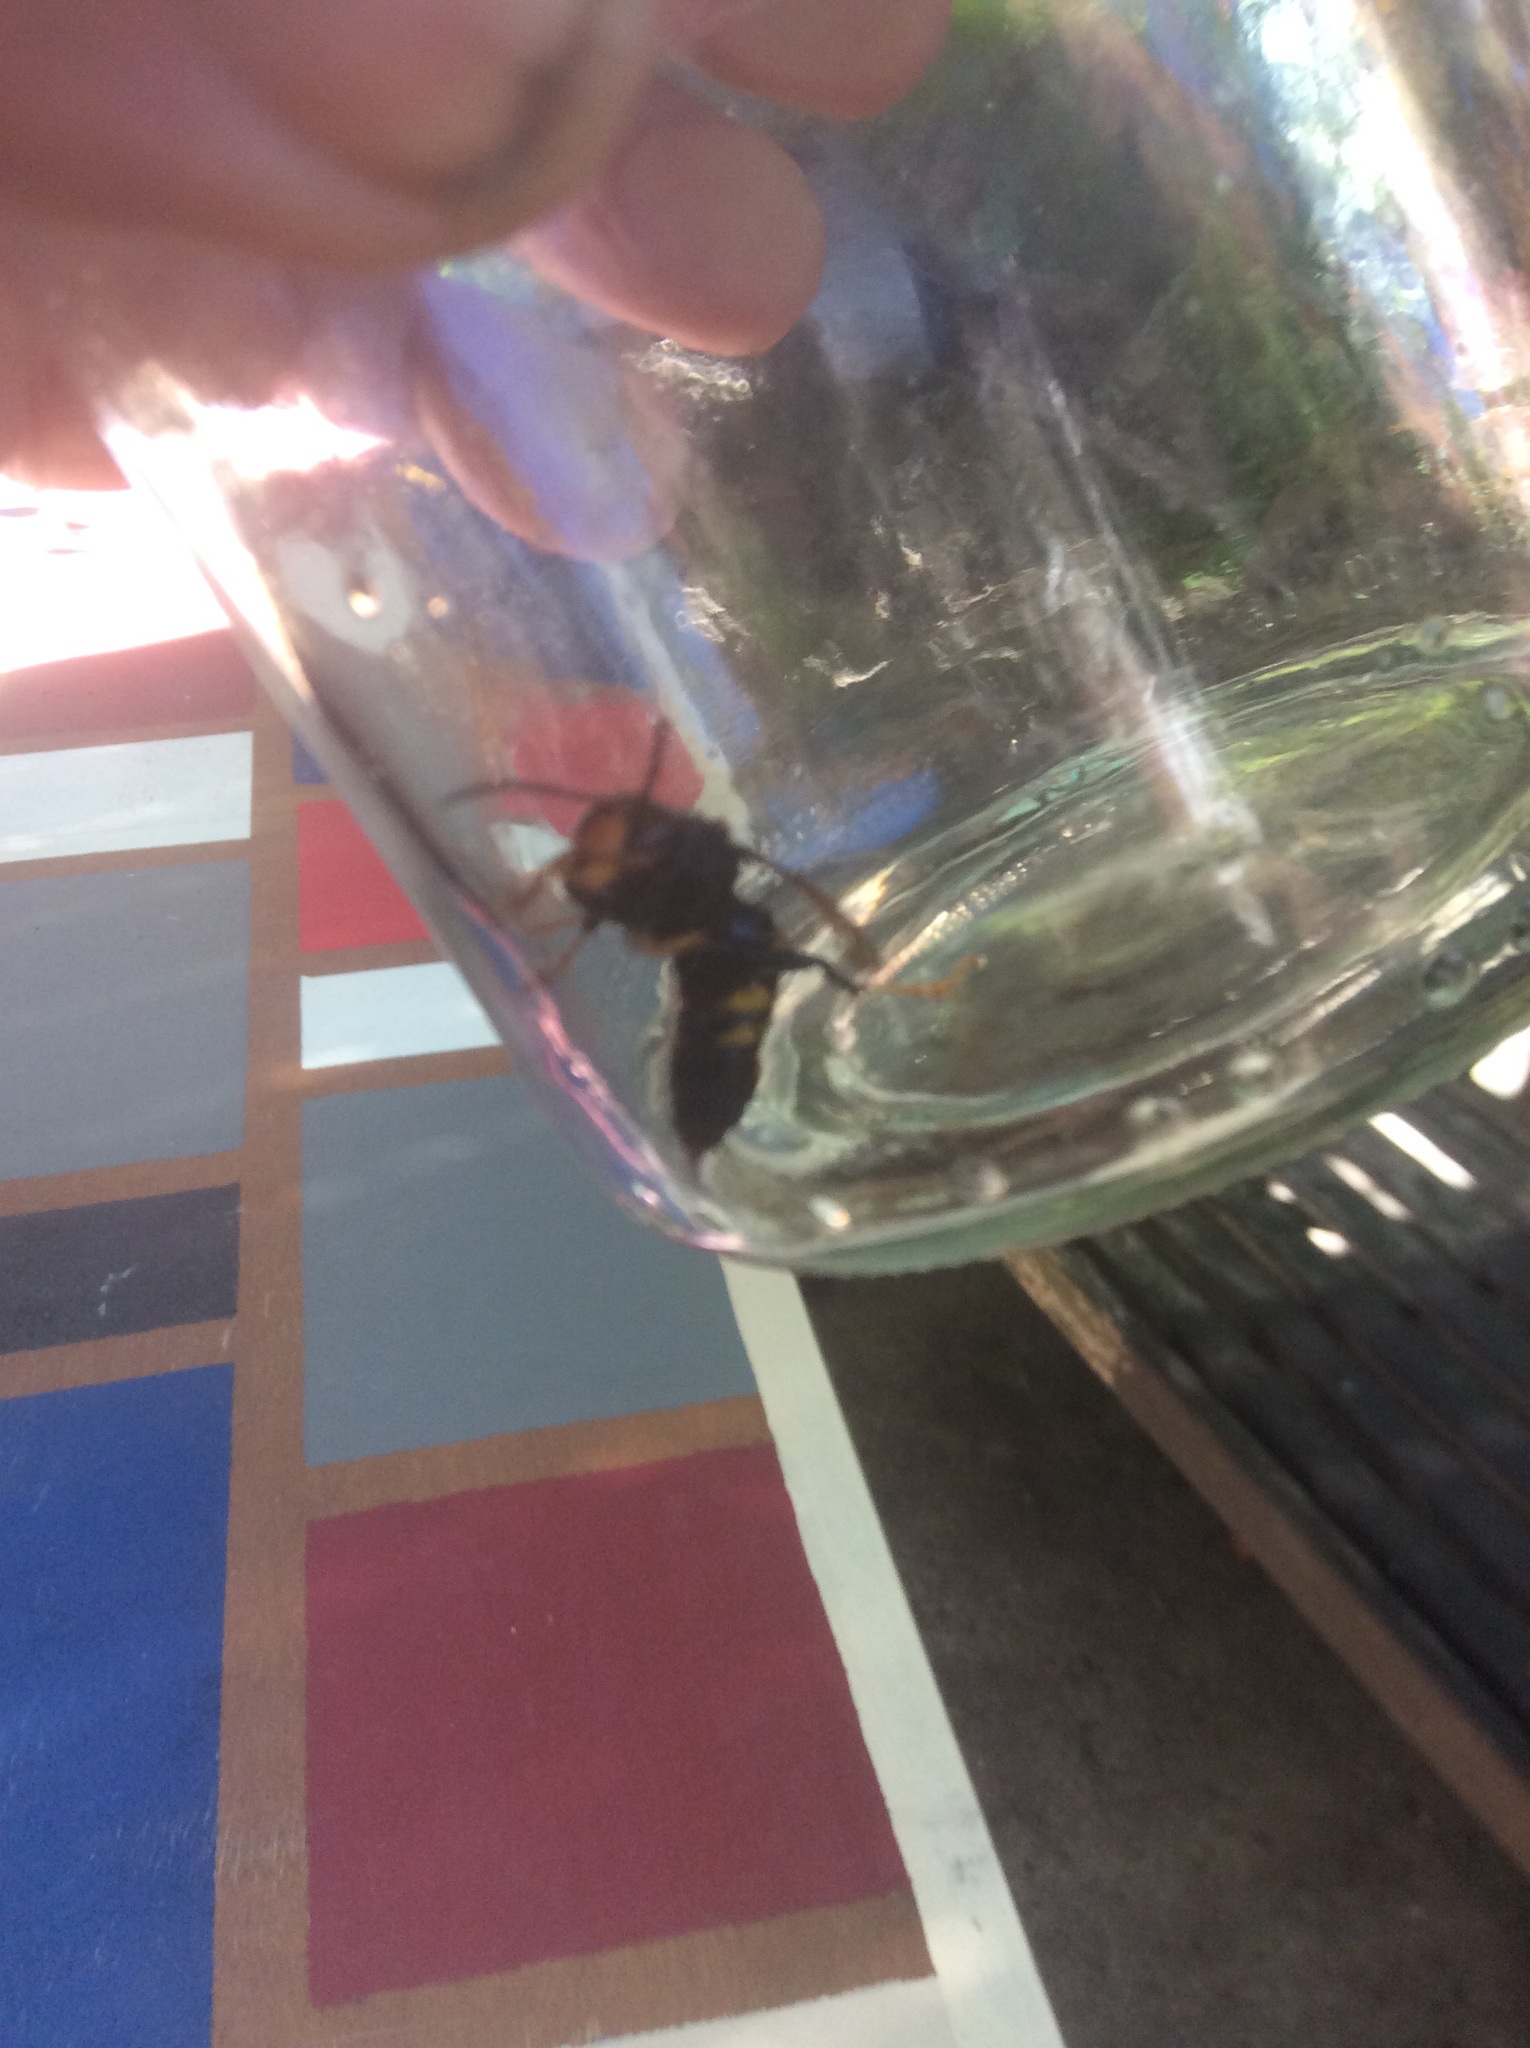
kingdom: Animalia
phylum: Arthropoda
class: Insecta
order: Hymenoptera
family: Vespidae
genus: Vespa
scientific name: Vespa velutina
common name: Asian hornet
